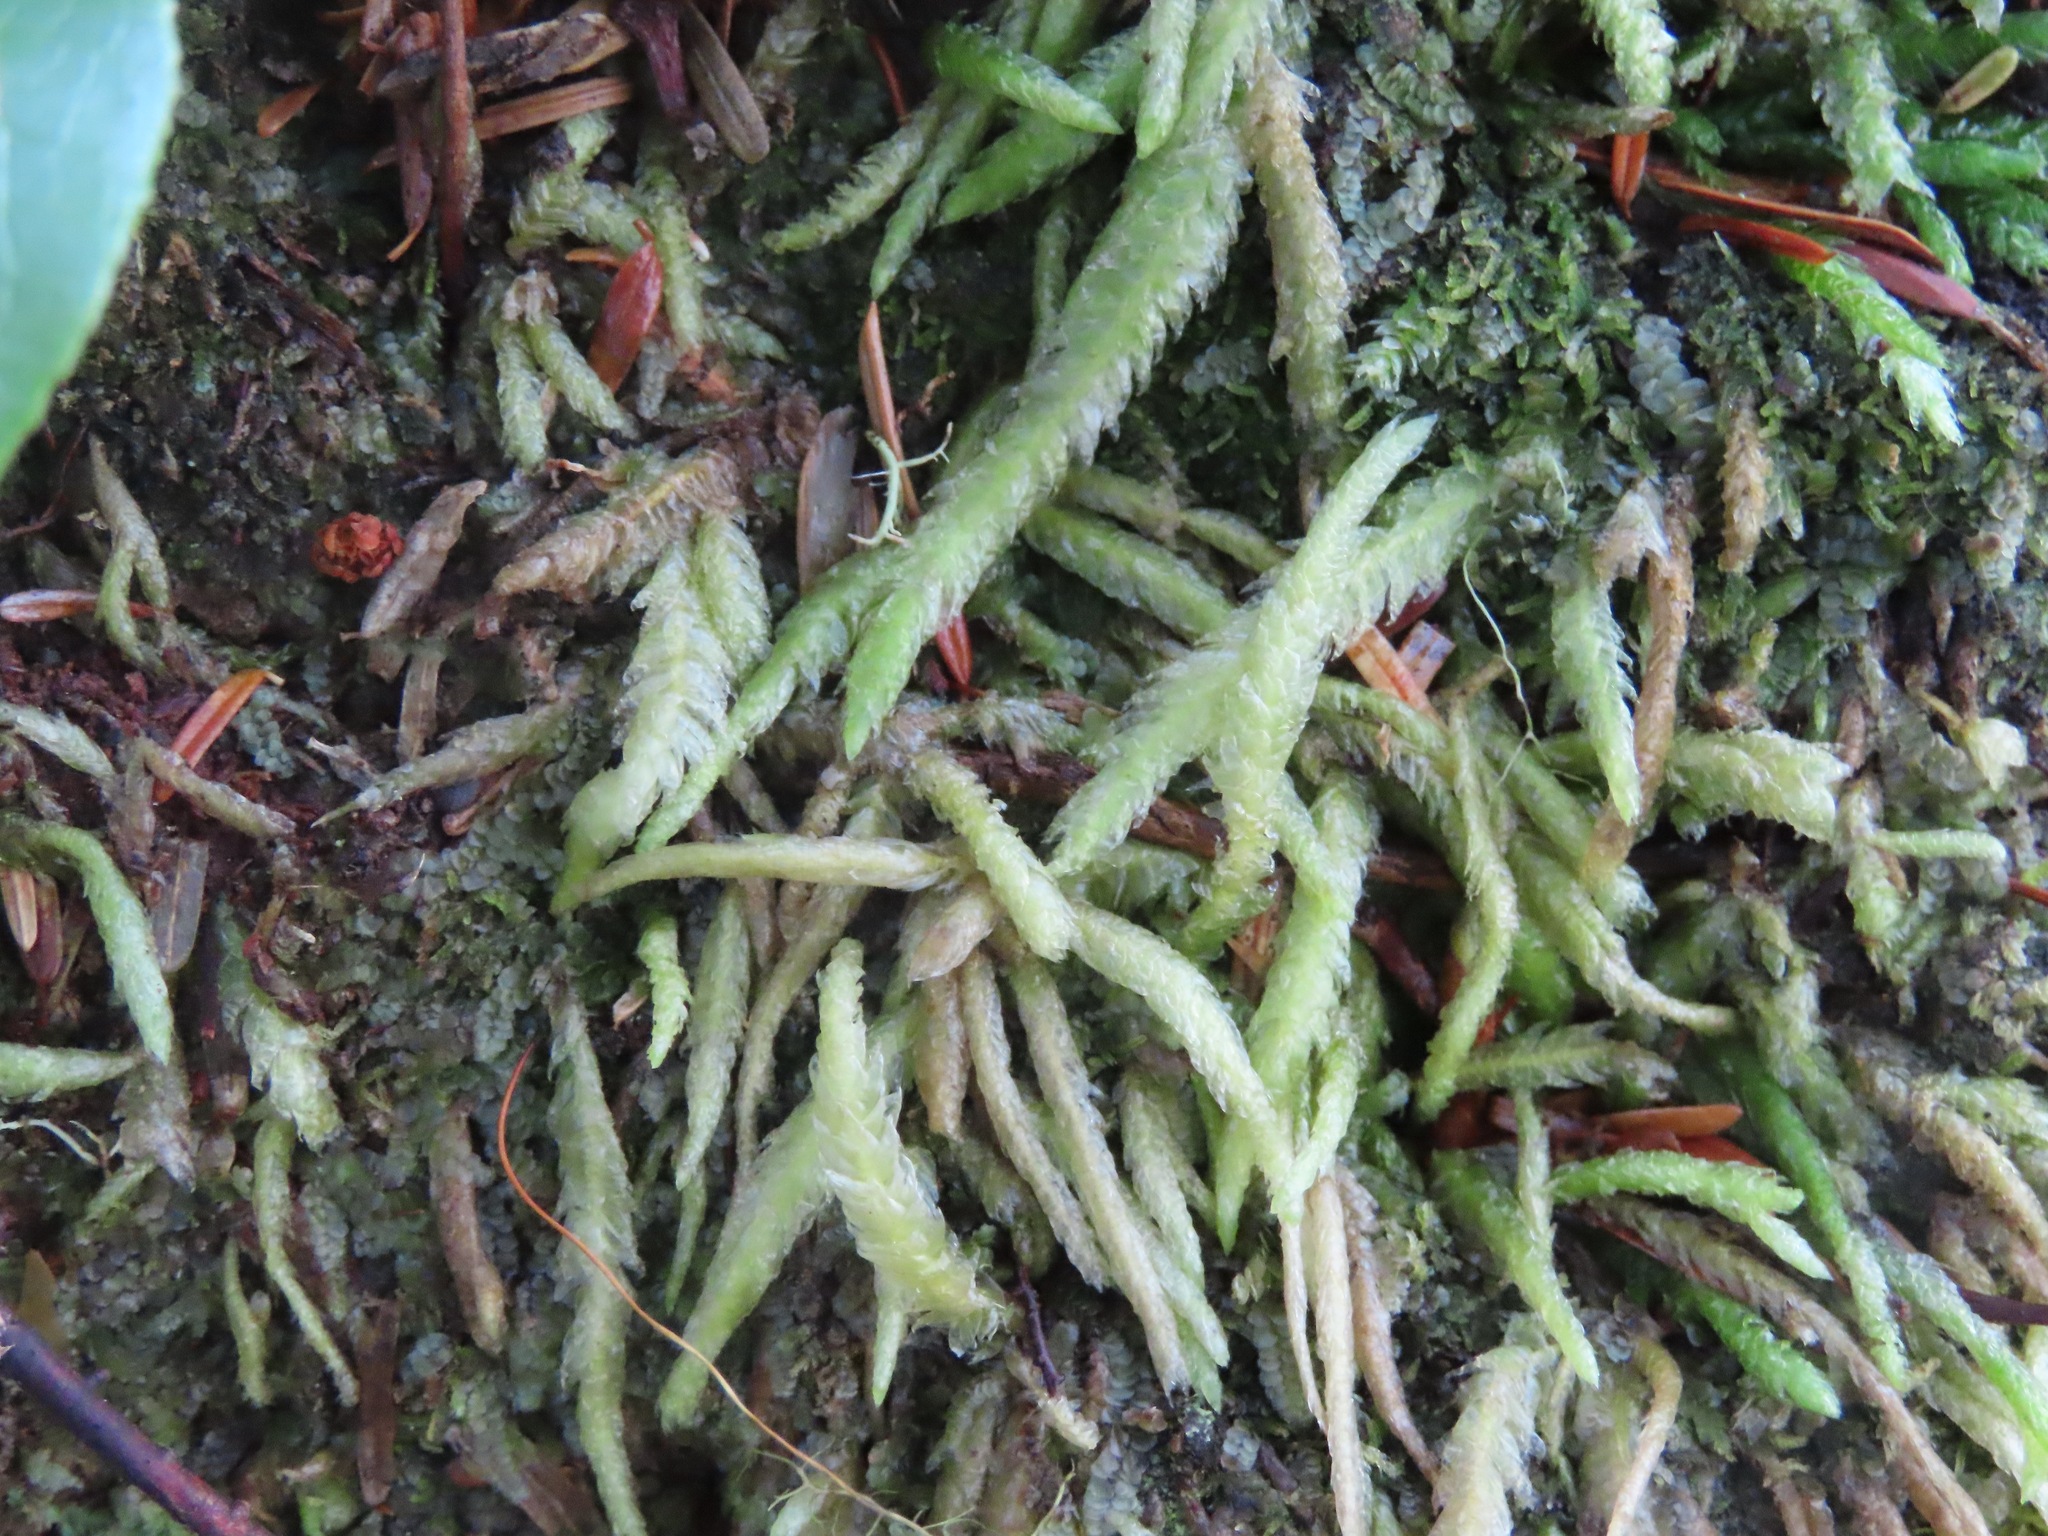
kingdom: Plantae
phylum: Bryophyta
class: Bryopsida
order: Hypnales
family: Plagiotheciaceae
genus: Plagiothecium
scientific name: Plagiothecium undulatum
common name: Waved silk-moss
